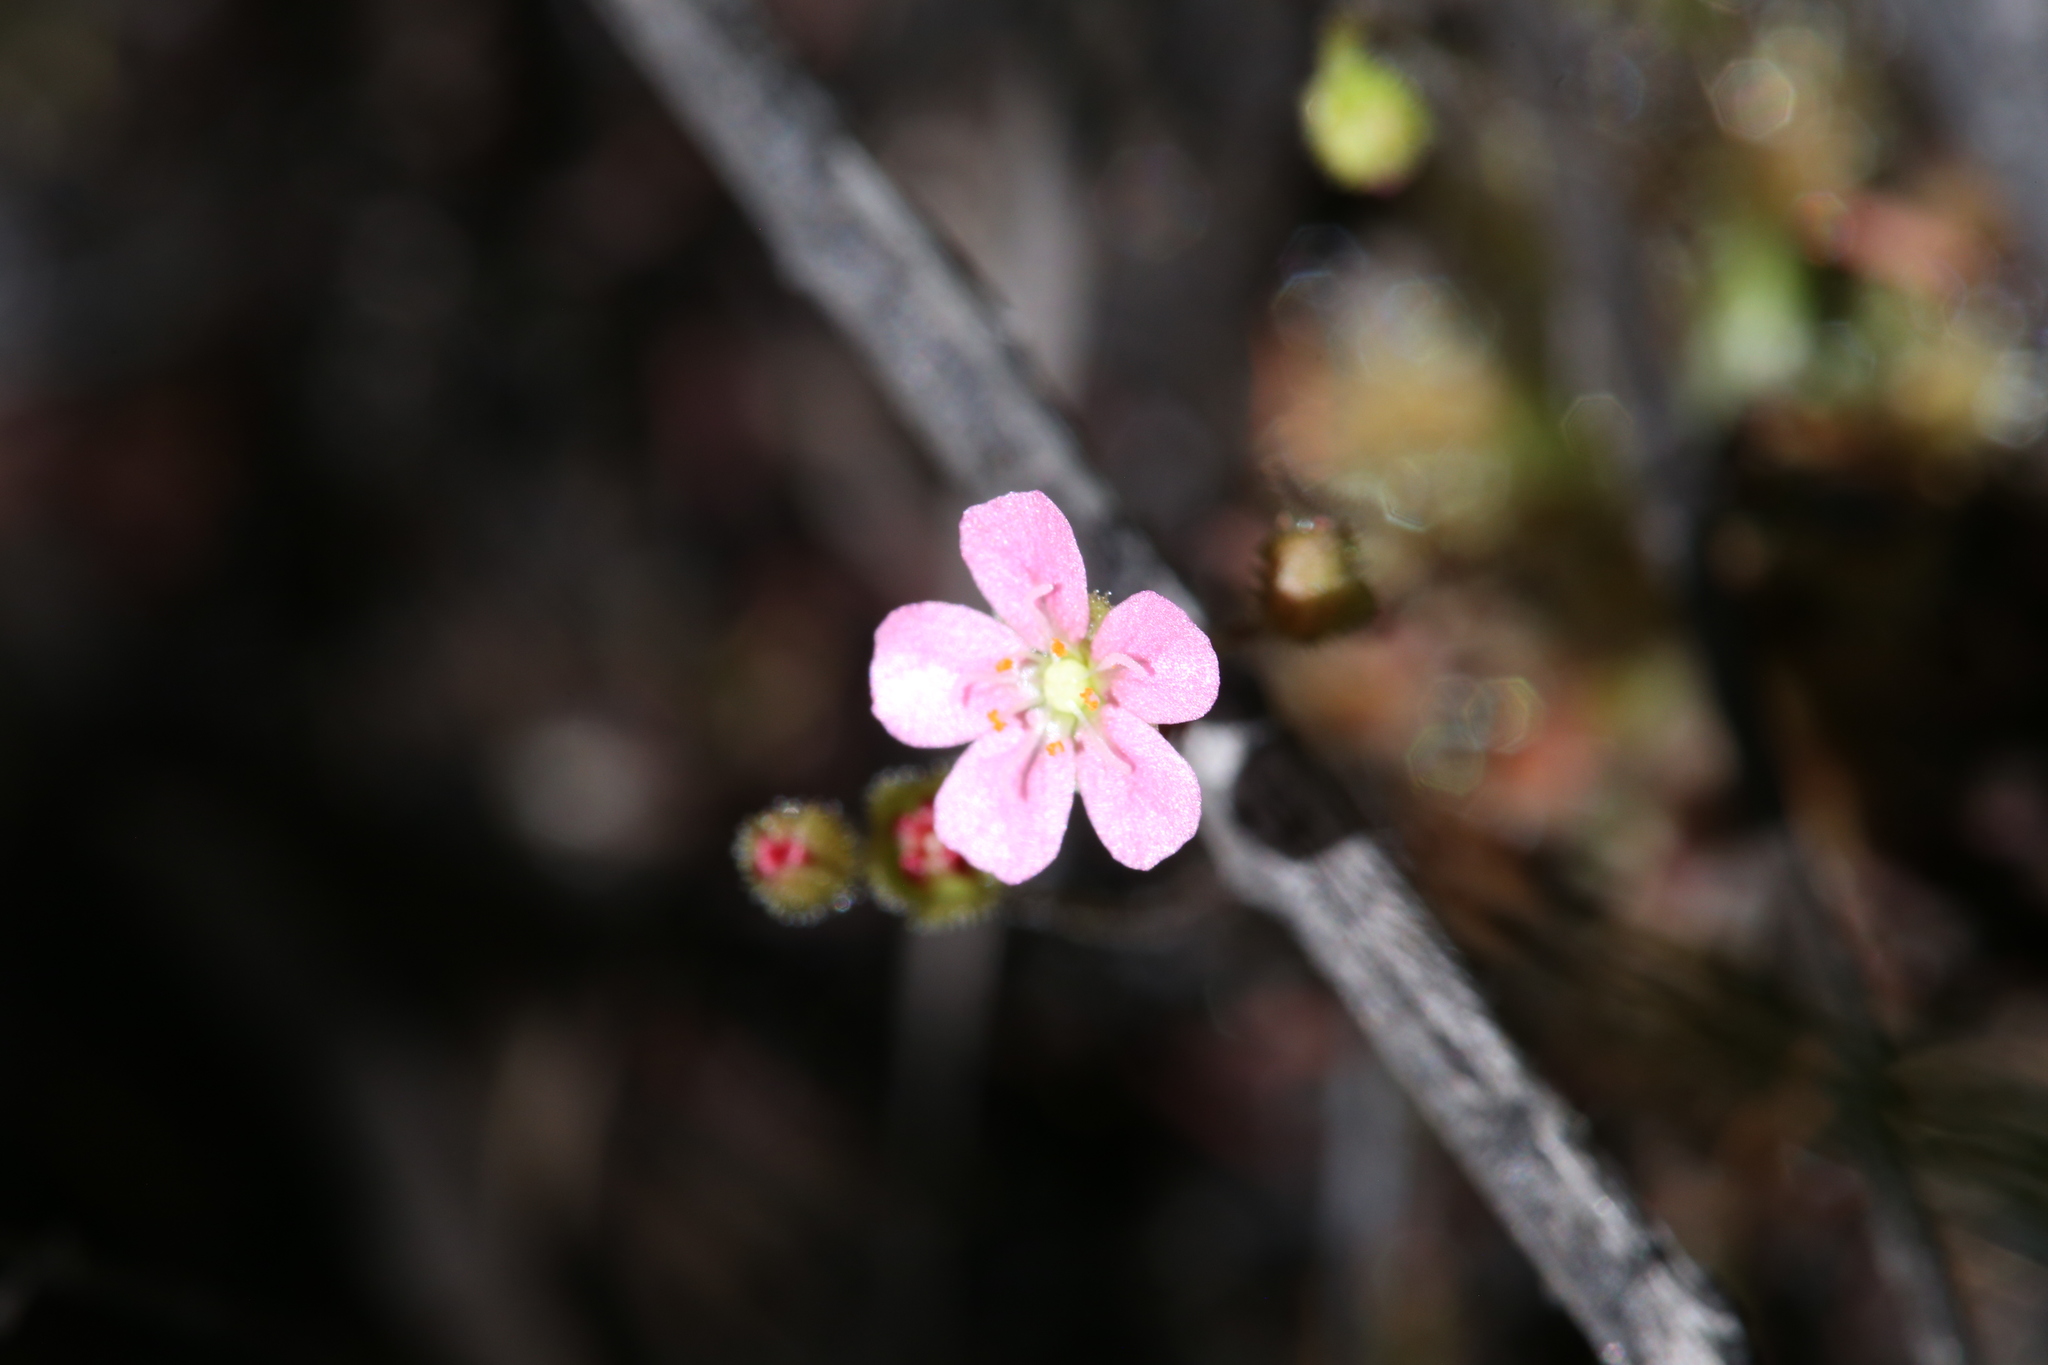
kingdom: Plantae
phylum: Tracheophyta
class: Magnoliopsida
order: Caryophyllales
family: Droseraceae
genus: Drosera
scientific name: Drosera pulchella
